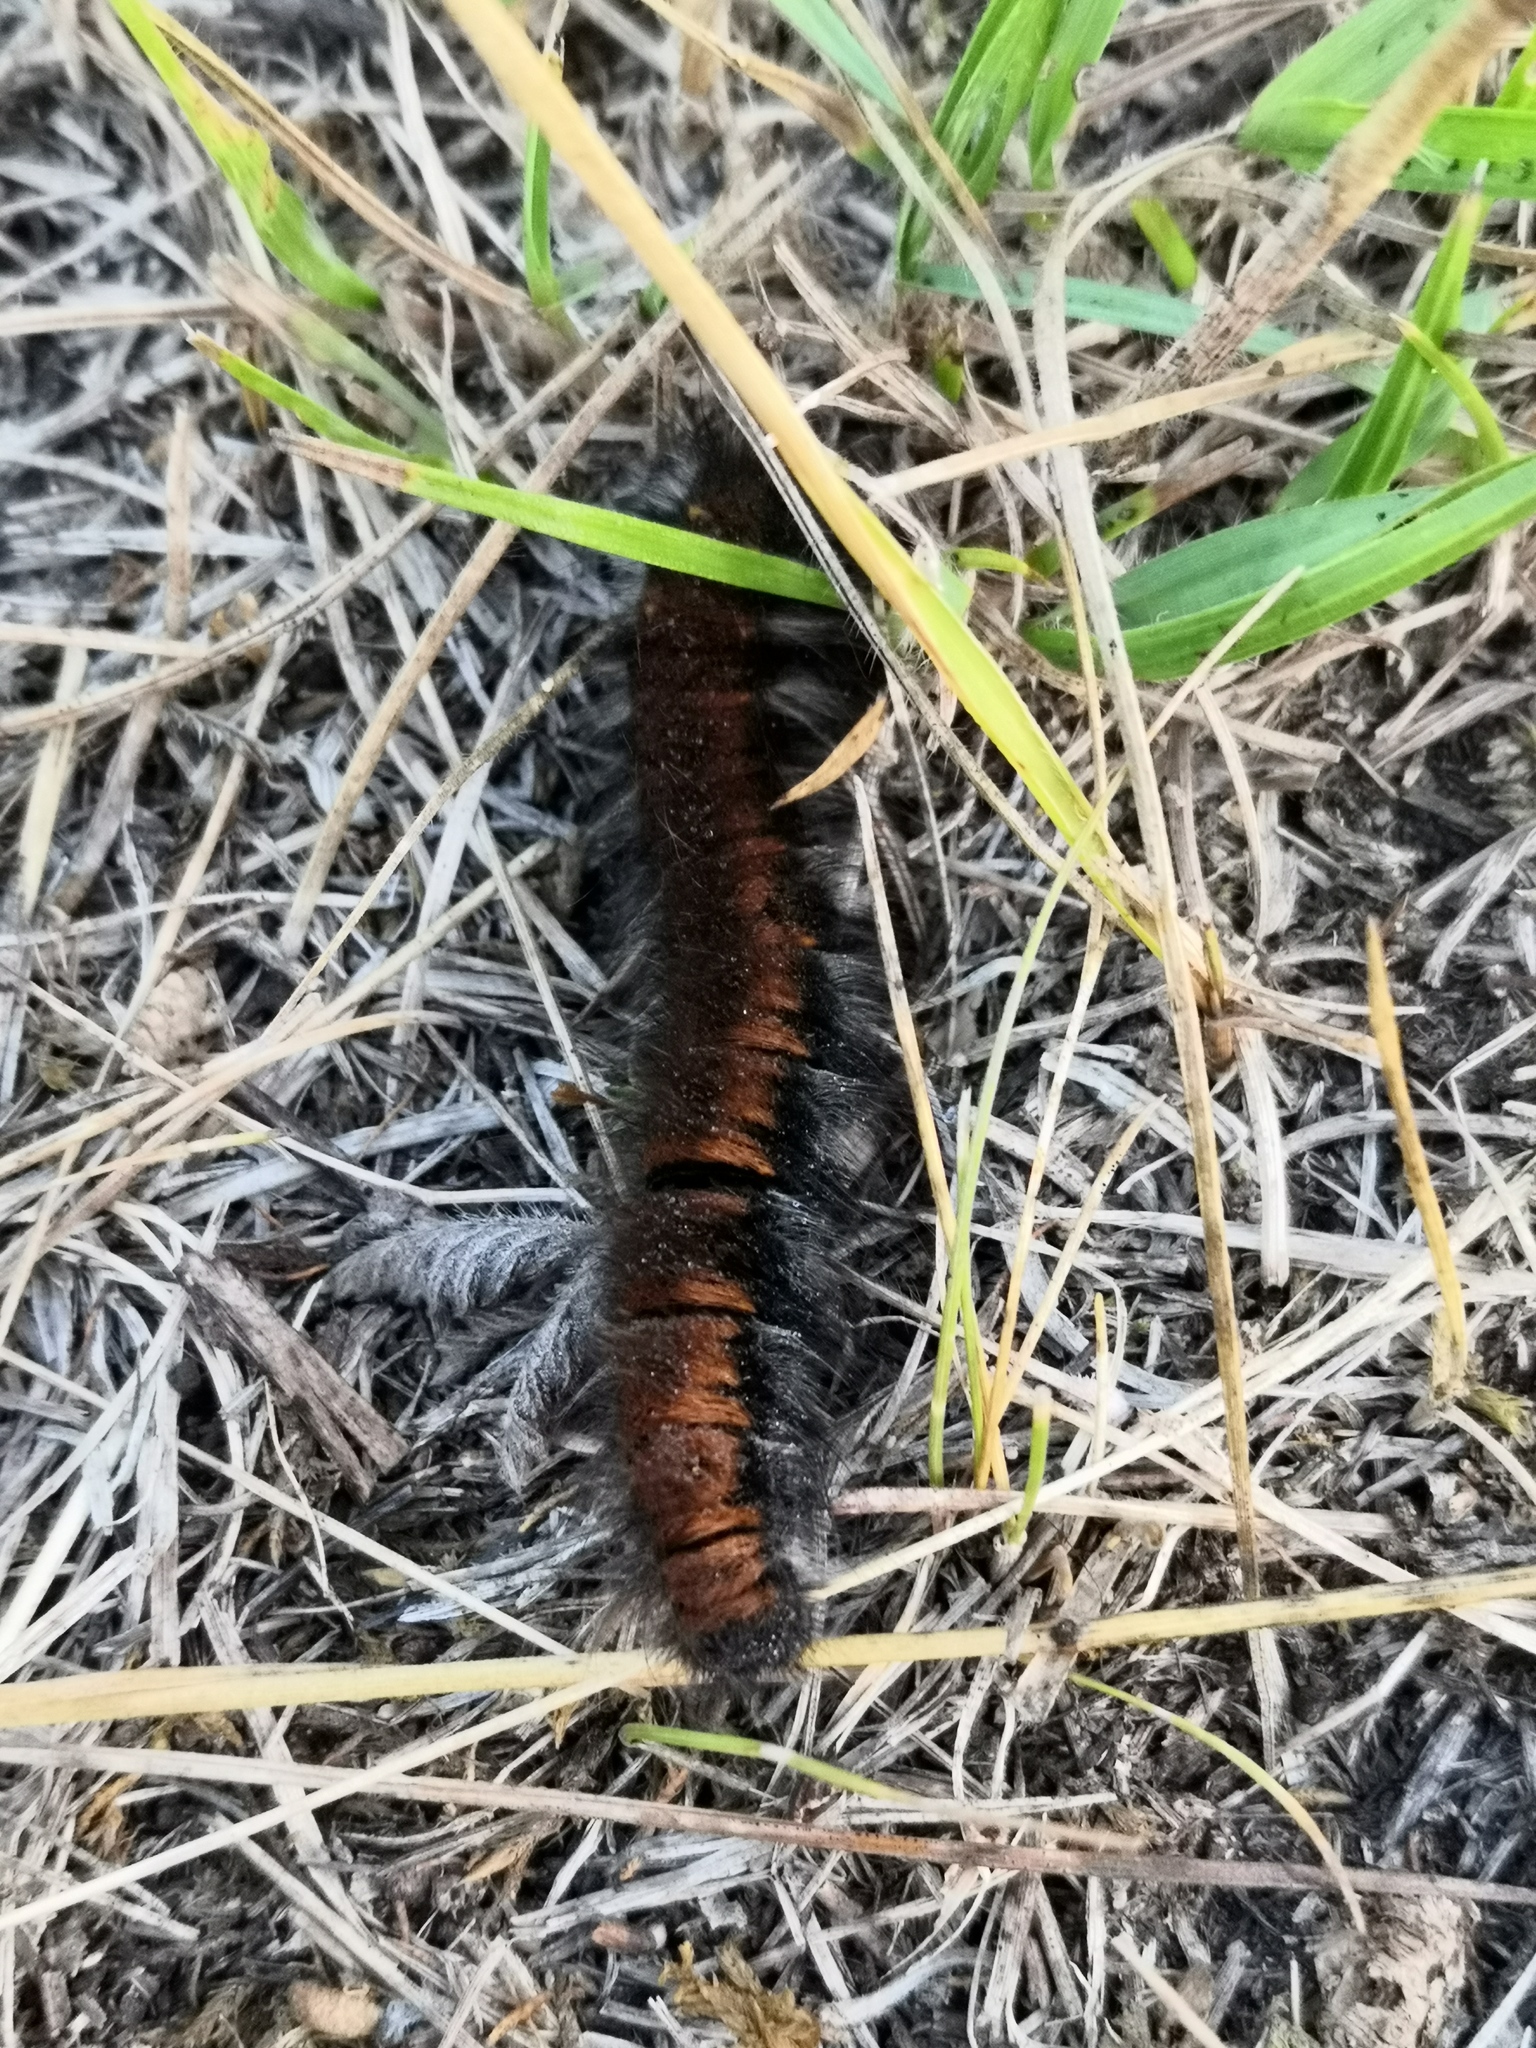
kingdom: Animalia
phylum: Arthropoda
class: Insecta
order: Lepidoptera
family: Lasiocampidae
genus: Macrothylacia
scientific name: Macrothylacia rubi
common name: Fox moth
